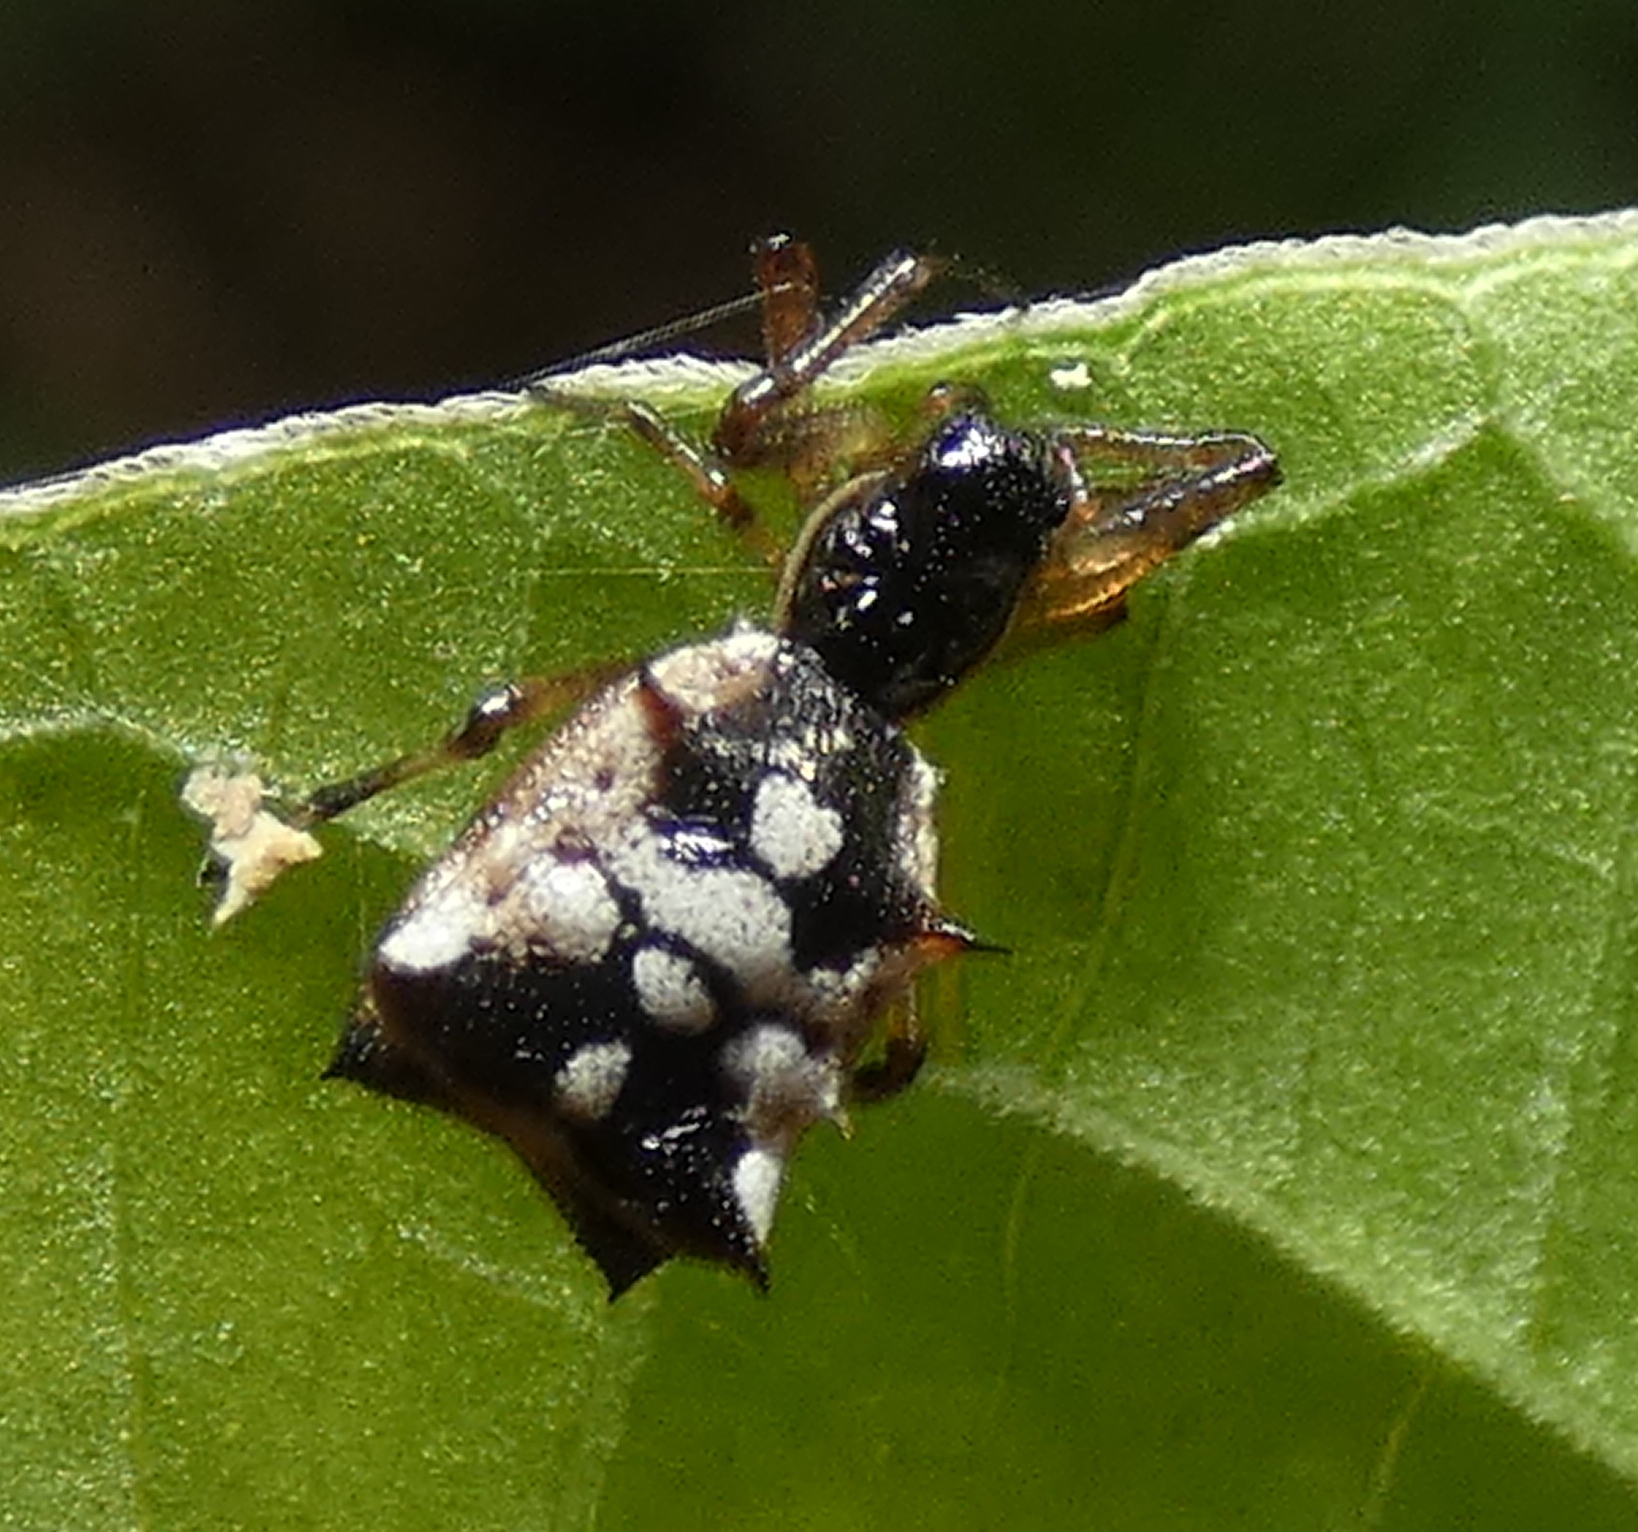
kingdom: Animalia
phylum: Arthropoda
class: Arachnida
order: Araneae
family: Araneidae
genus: Micrathena
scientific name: Micrathena picta
